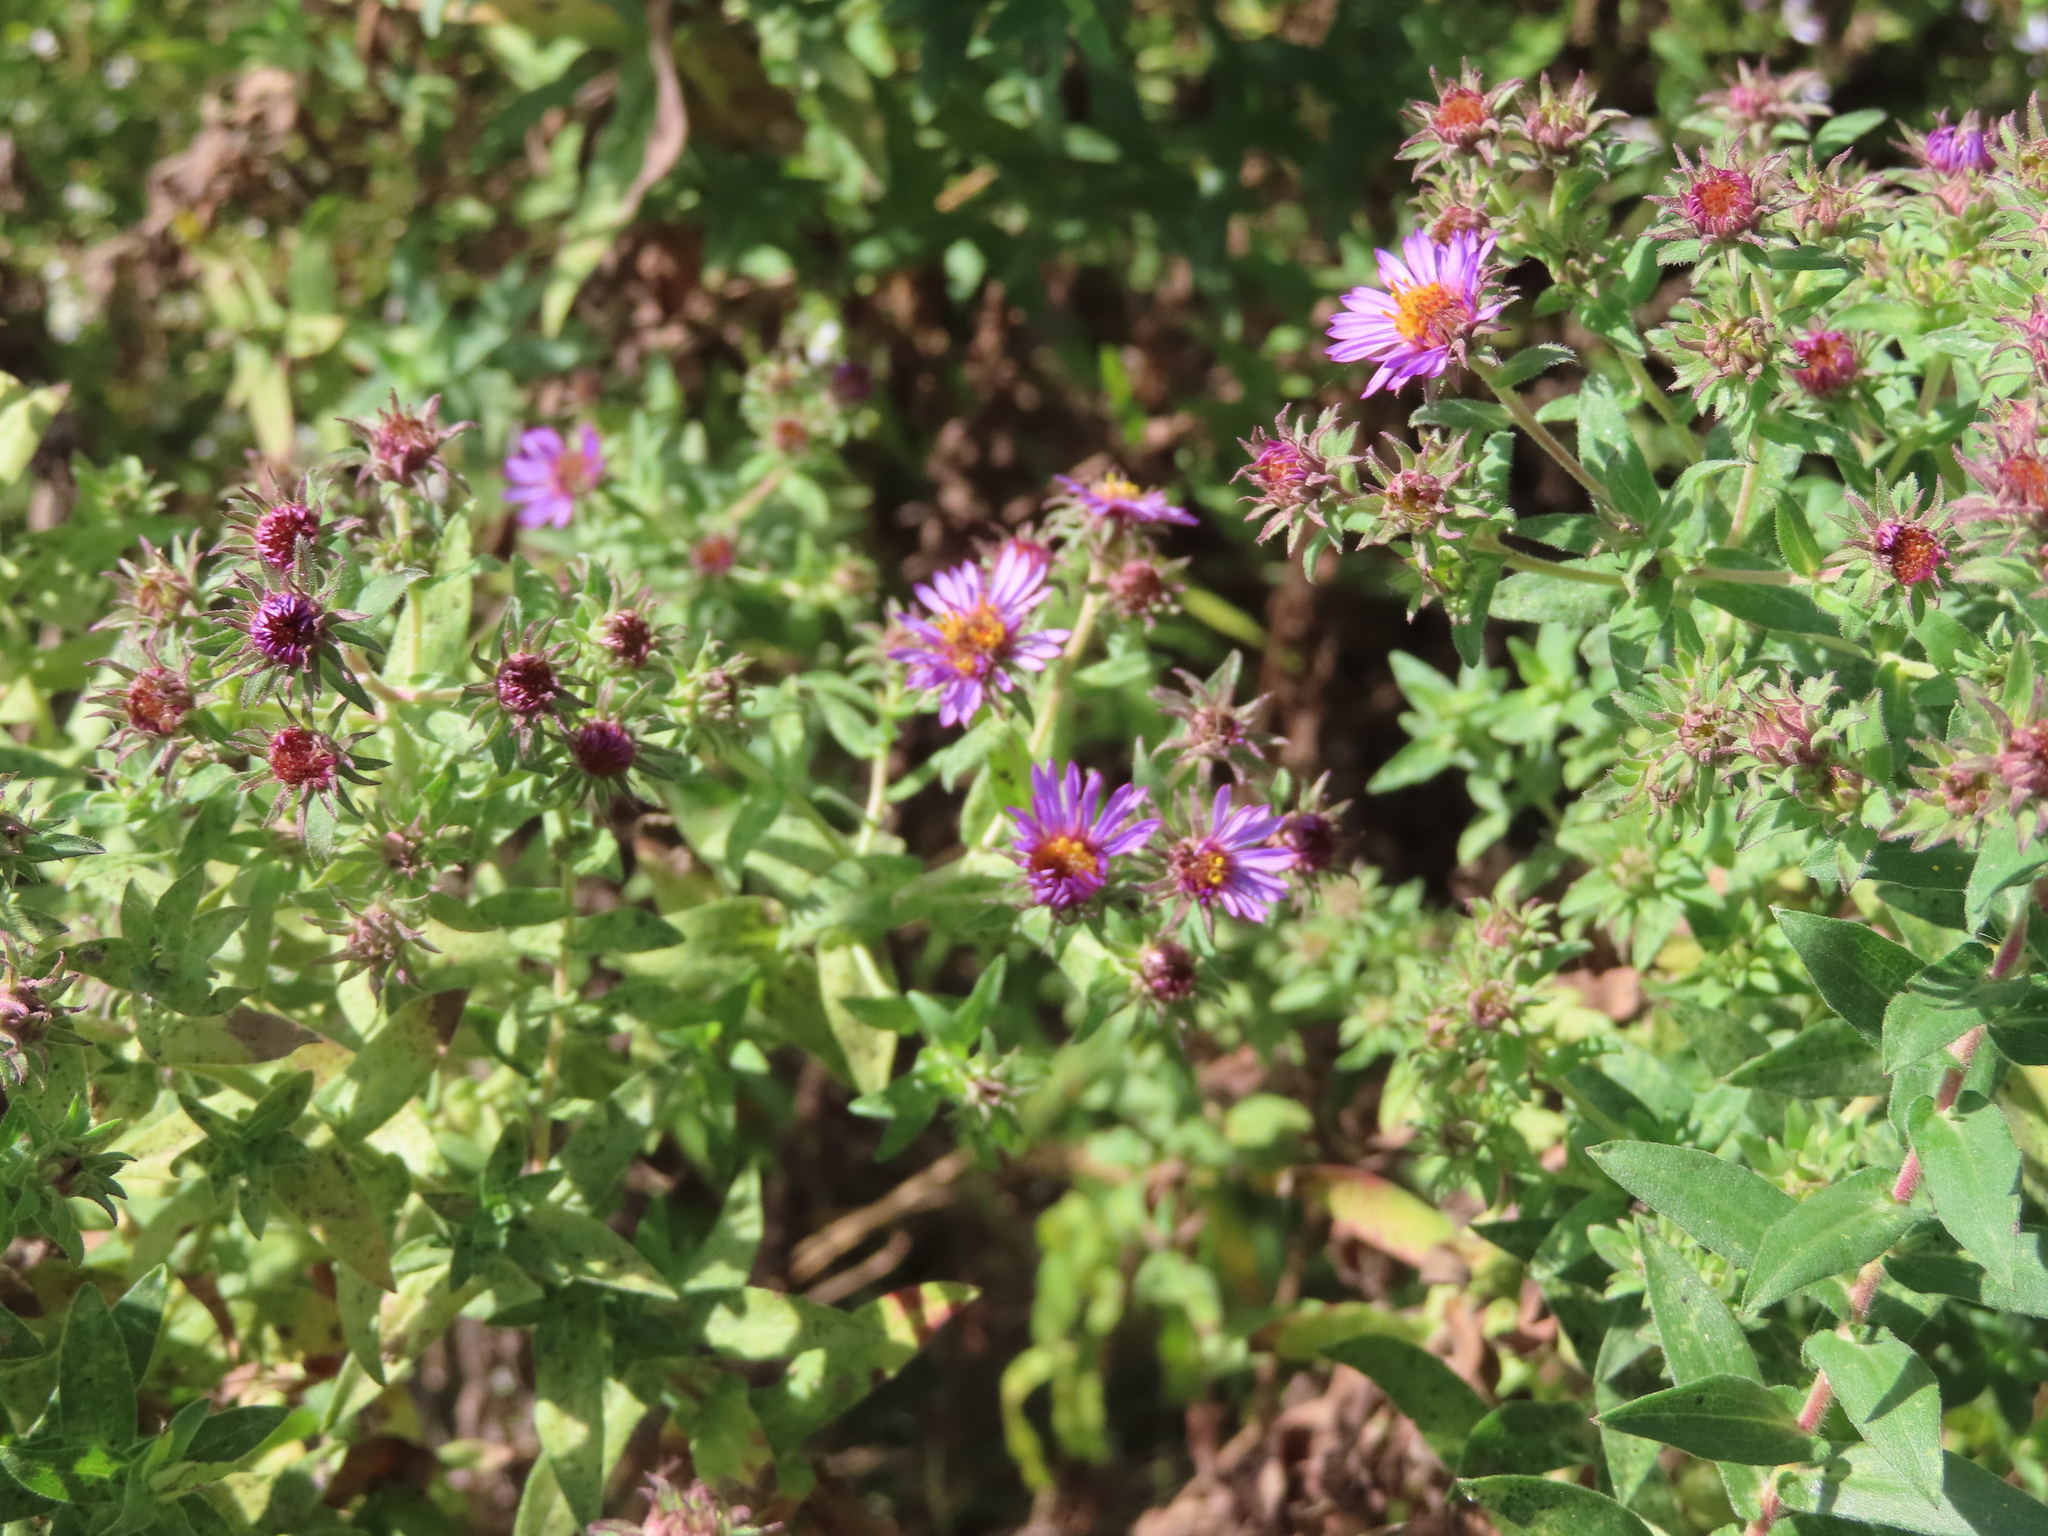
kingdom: Plantae
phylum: Tracheophyta
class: Magnoliopsida
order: Asterales
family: Asteraceae
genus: Symphyotrichum
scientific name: Symphyotrichum novae-angliae
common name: Michaelmas daisy
